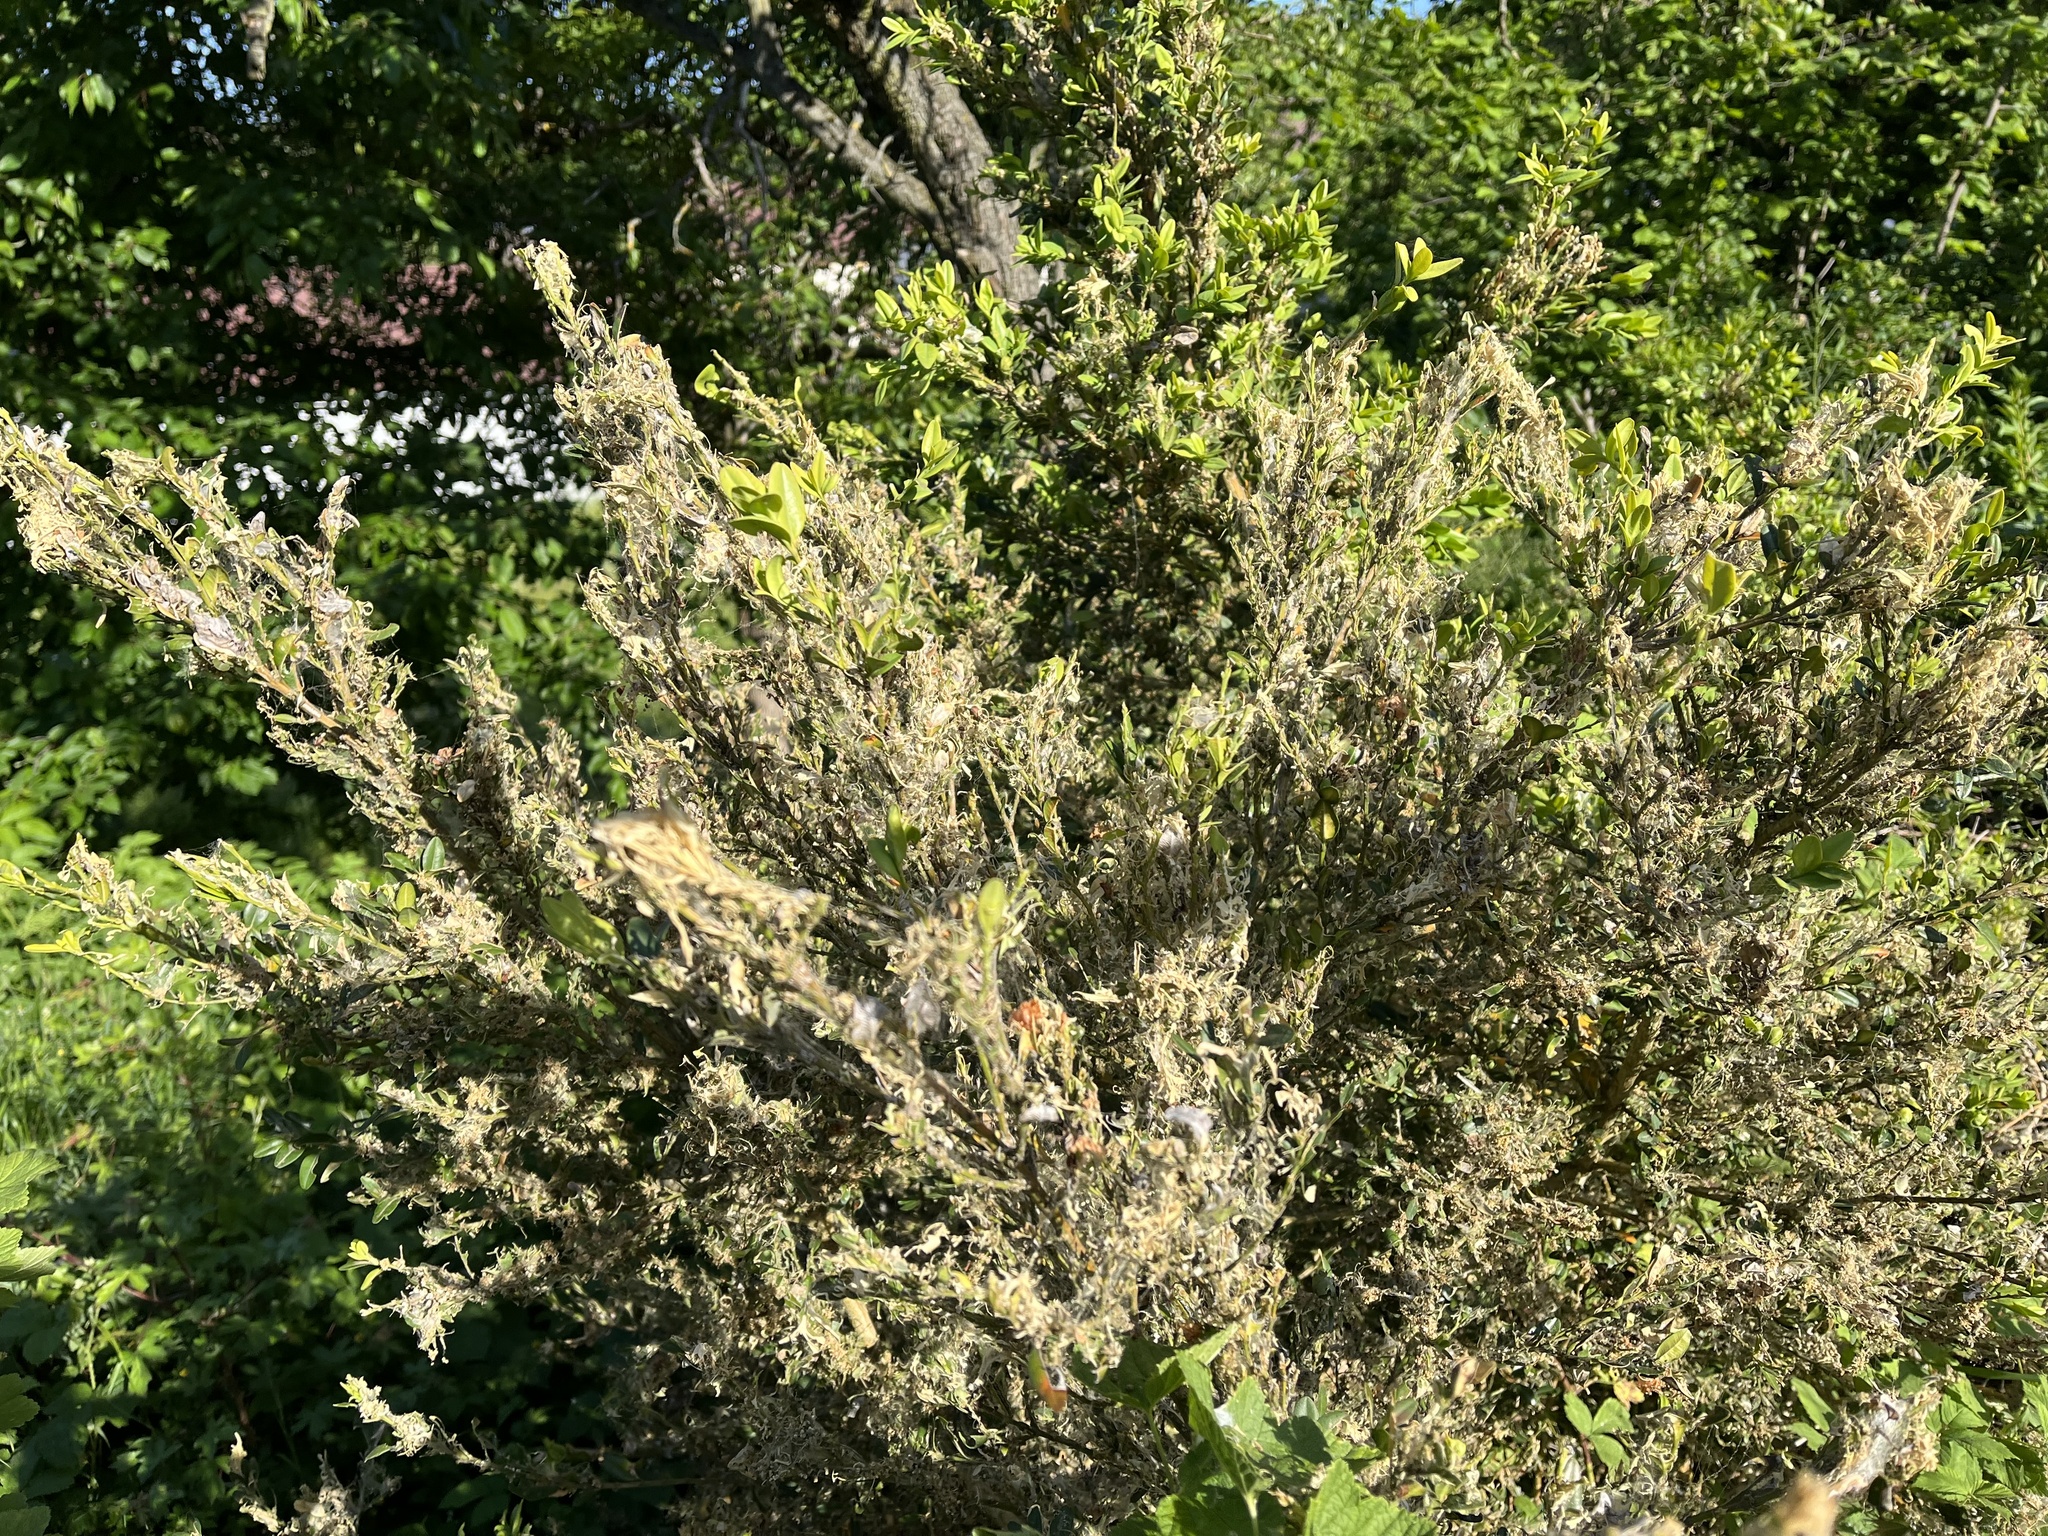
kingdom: Animalia
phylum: Arthropoda
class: Insecta
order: Lepidoptera
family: Crambidae
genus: Cydalima
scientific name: Cydalima perspectalis
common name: Box tree moth
